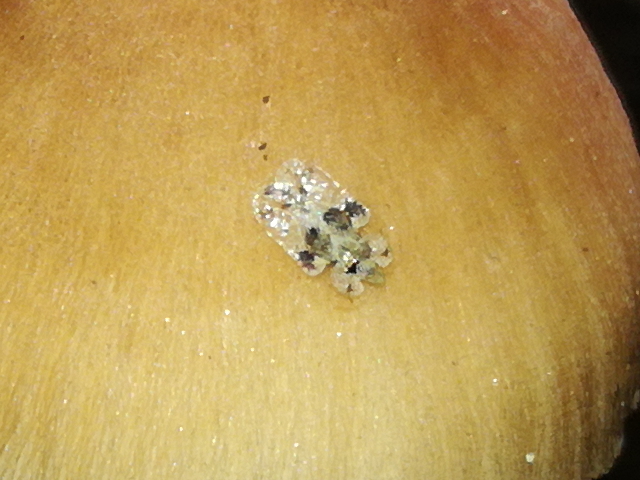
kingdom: Animalia
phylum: Arthropoda
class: Insecta
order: Hemiptera
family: Tingidae
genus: Corythucha
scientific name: Corythucha arcuata
